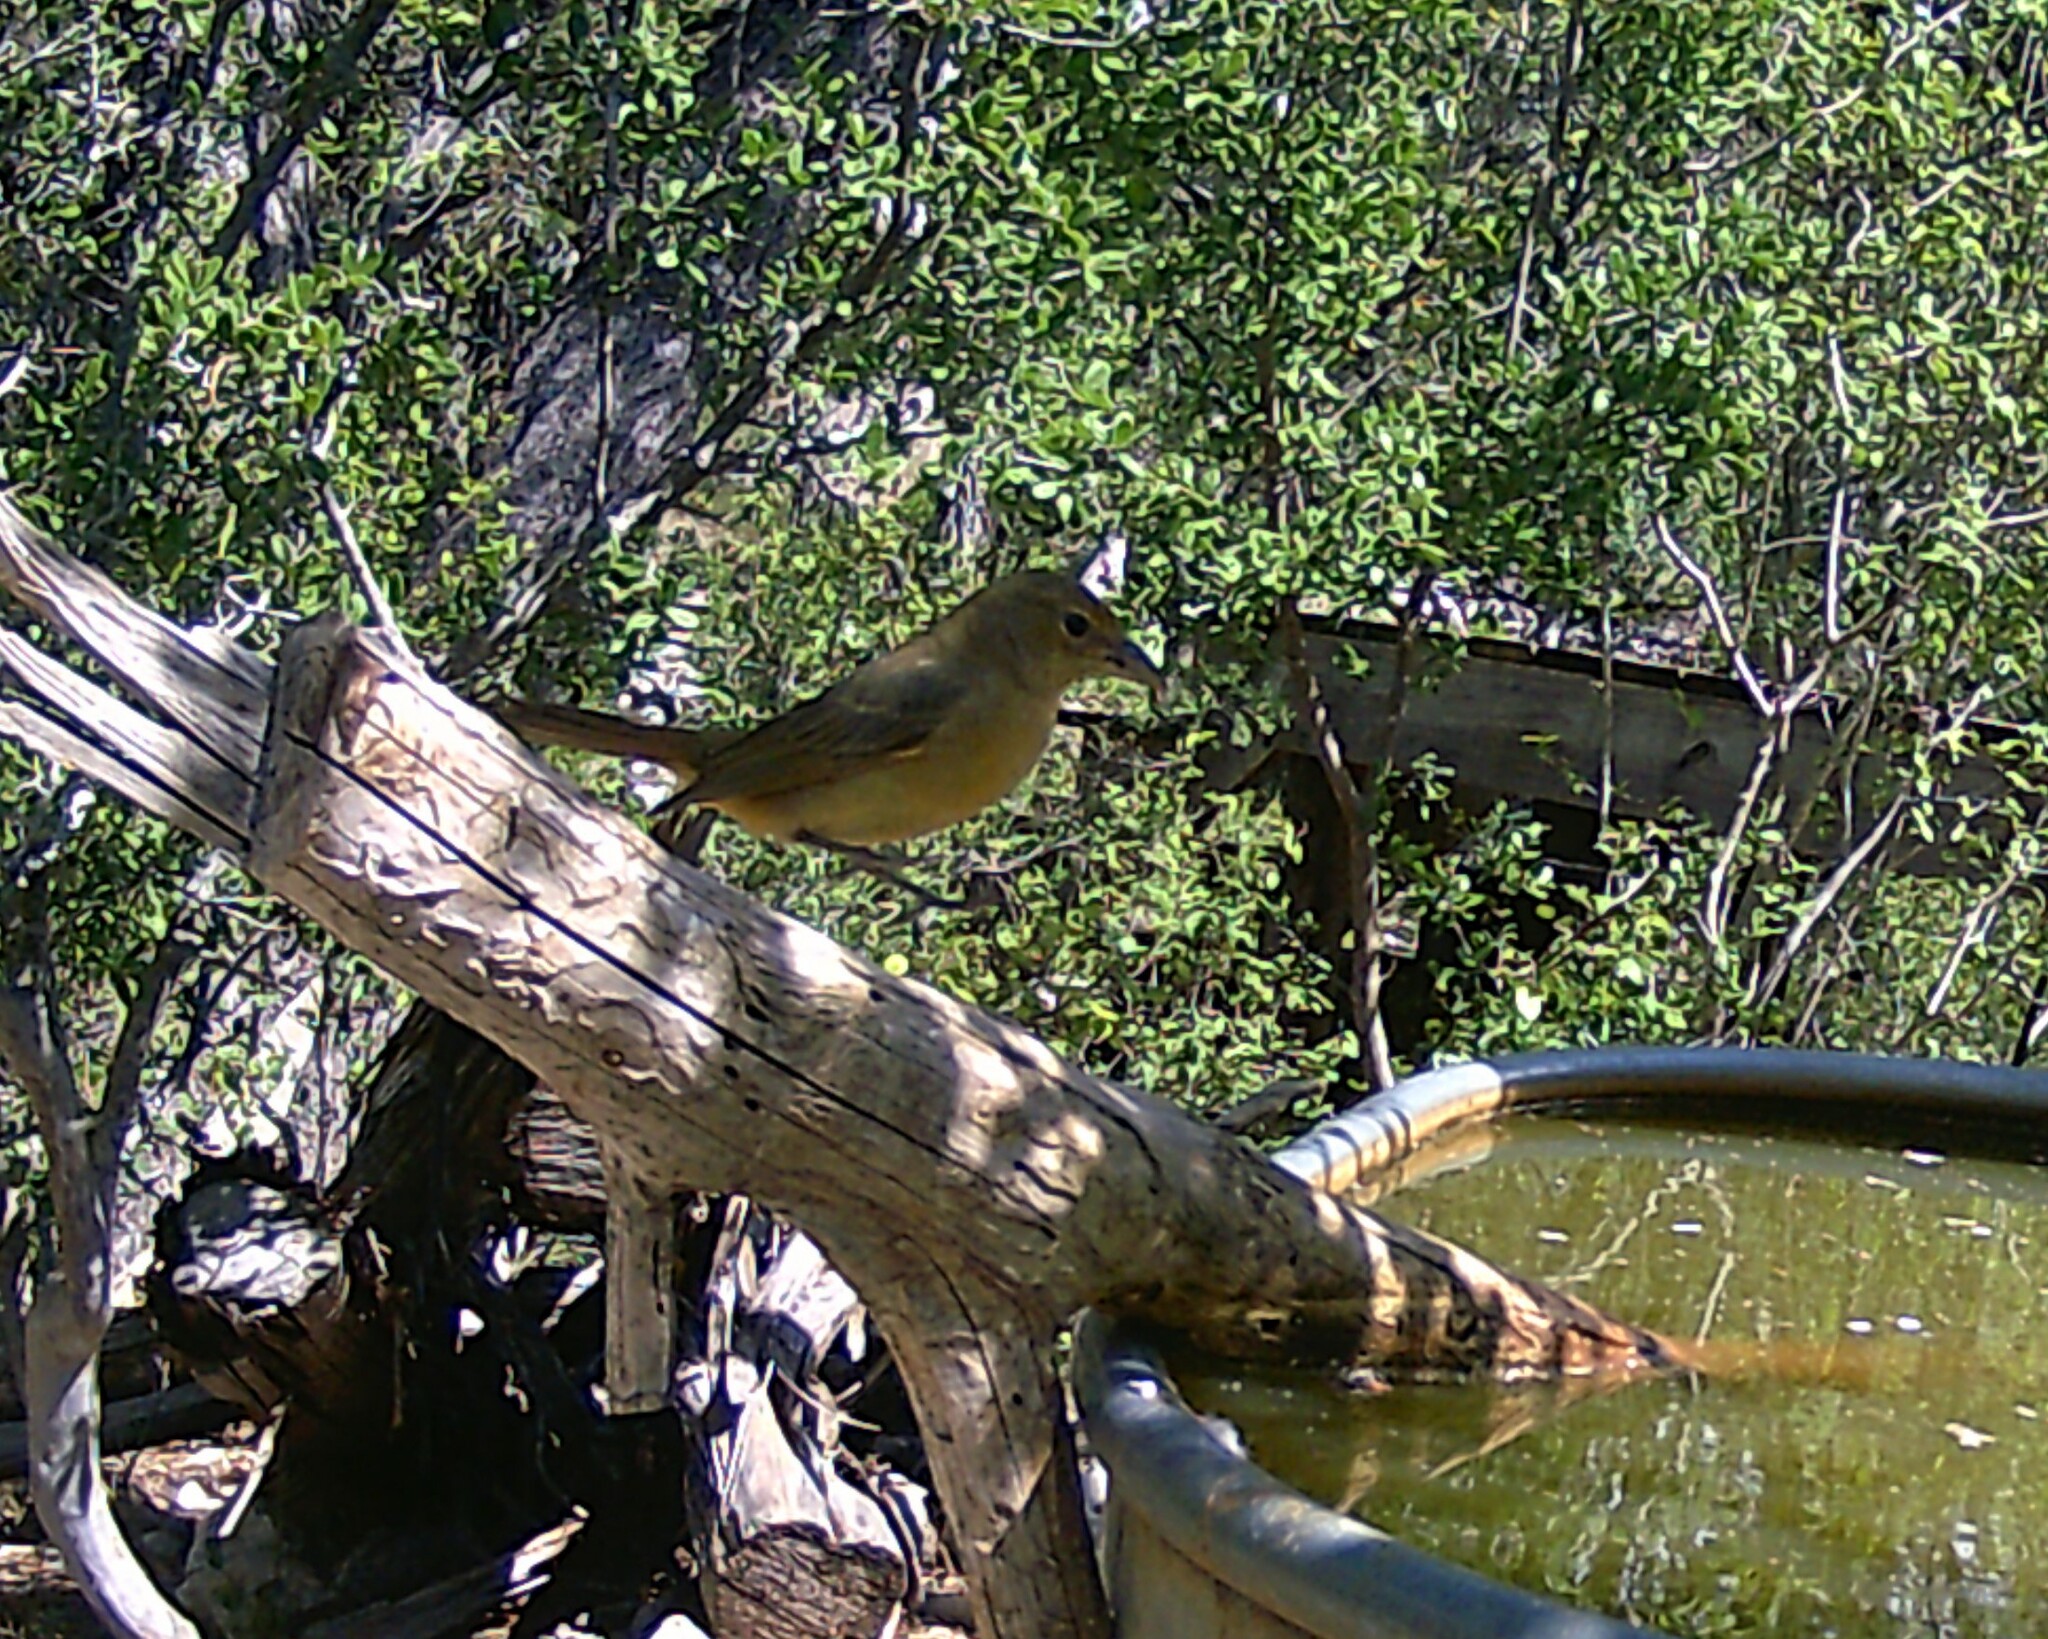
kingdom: Animalia
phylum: Chordata
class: Aves
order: Passeriformes
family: Cardinalidae
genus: Piranga
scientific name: Piranga rubra
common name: Summer tanager
